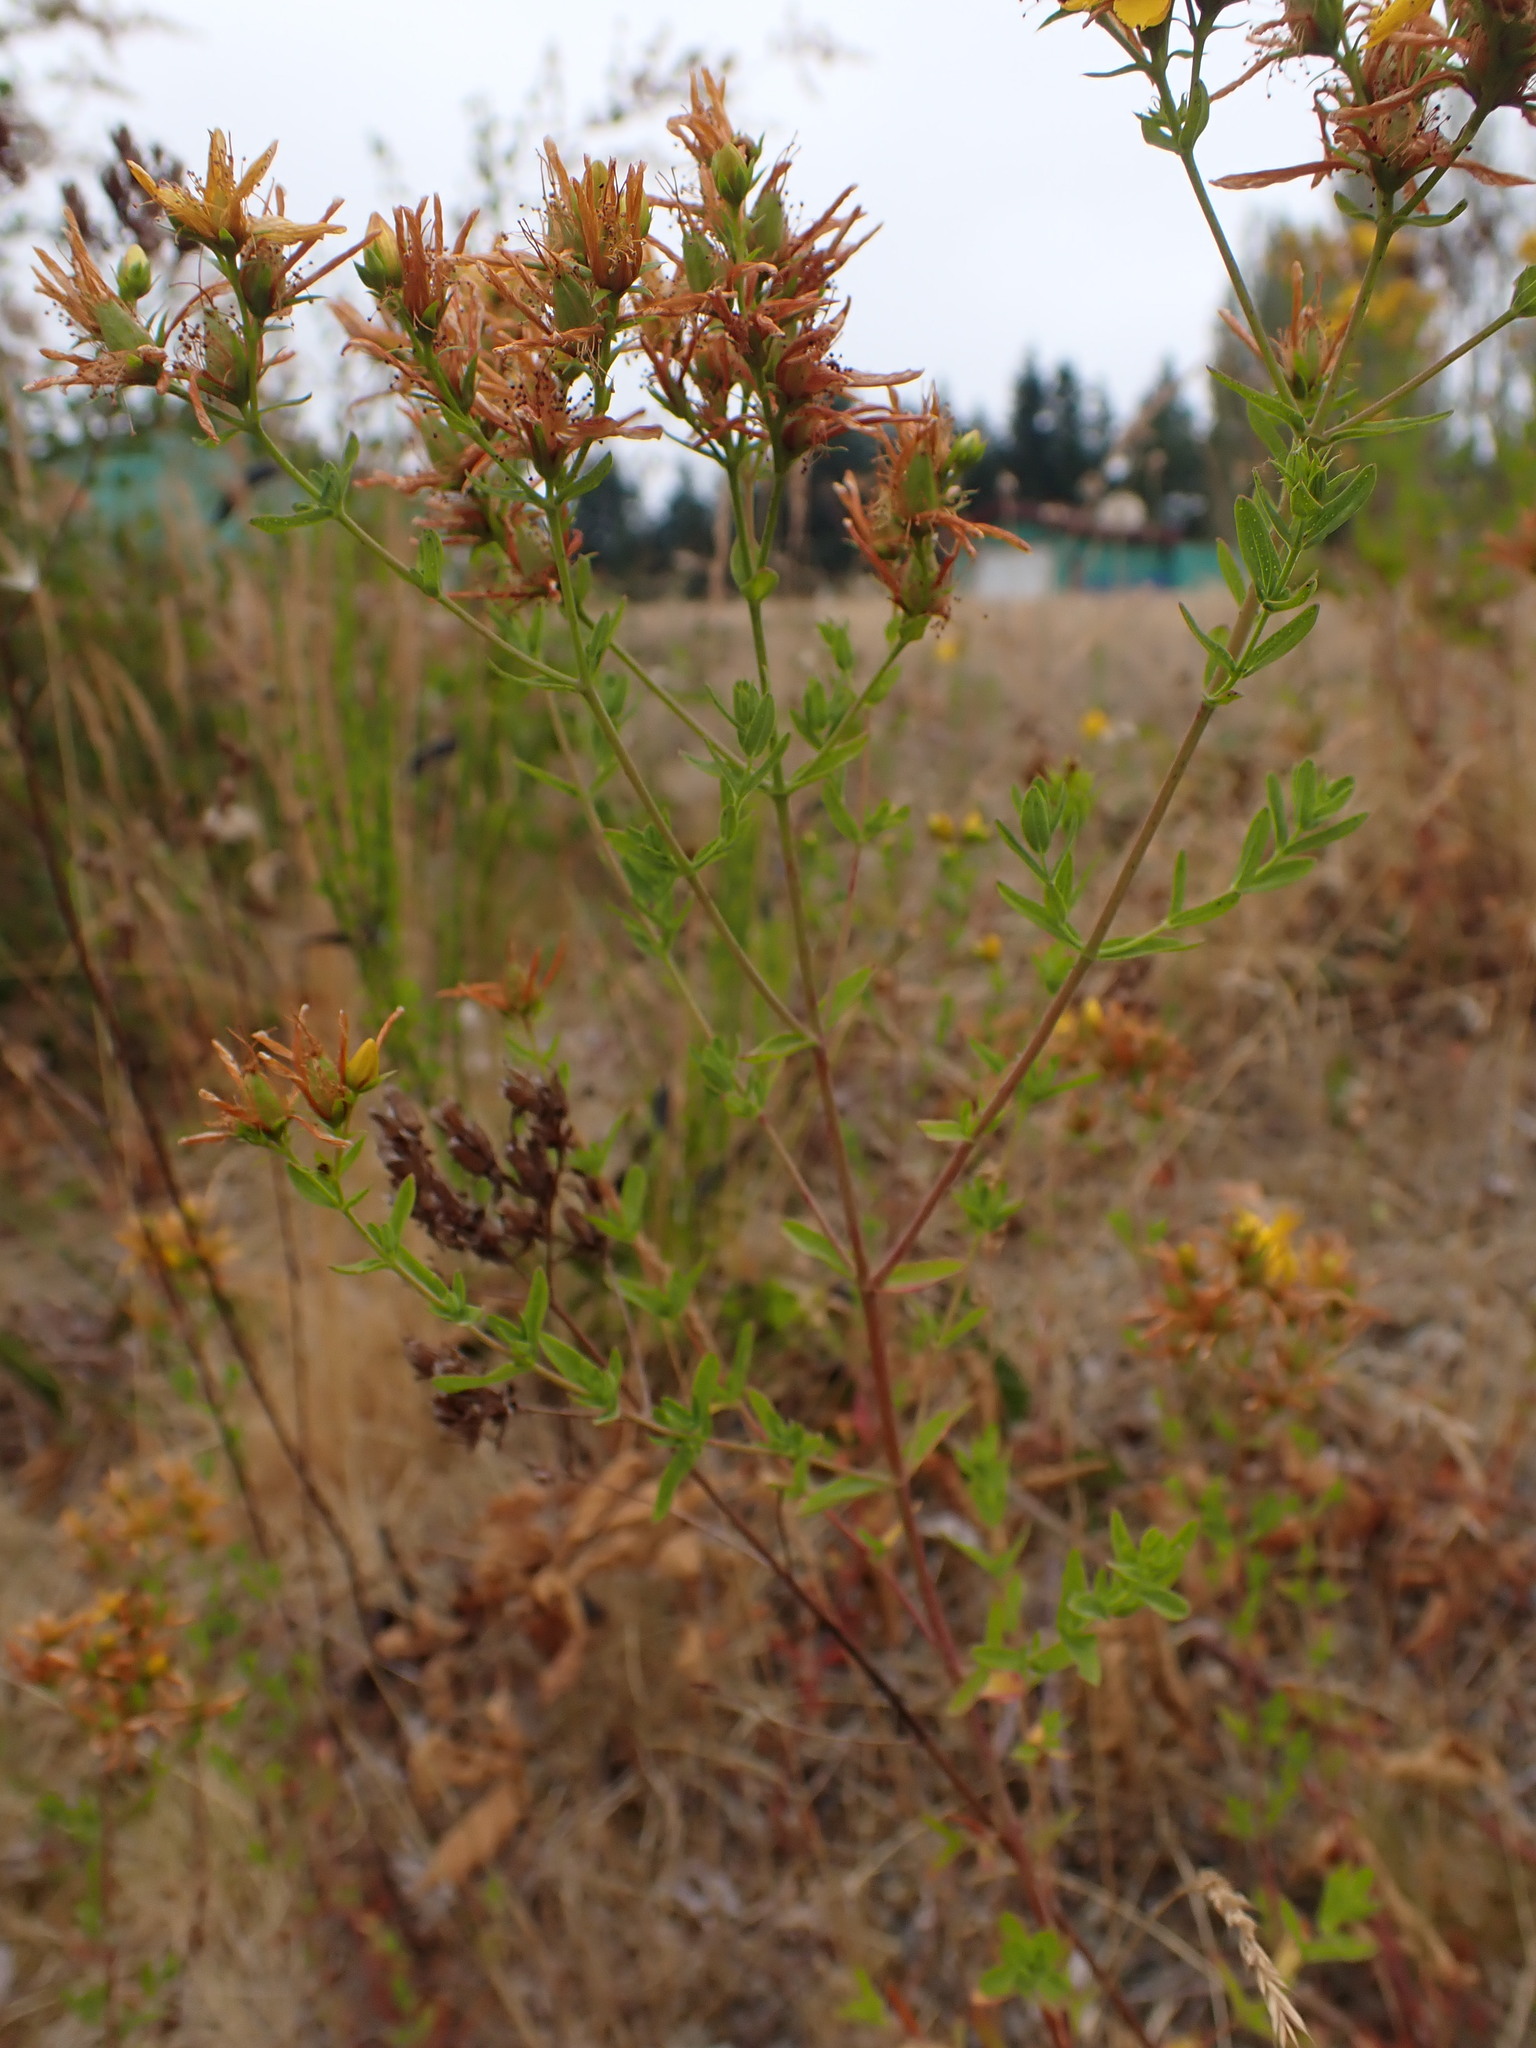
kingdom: Plantae
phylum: Tracheophyta
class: Magnoliopsida
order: Malpighiales
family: Hypericaceae
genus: Hypericum
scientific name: Hypericum perforatum
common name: Common st. johnswort
